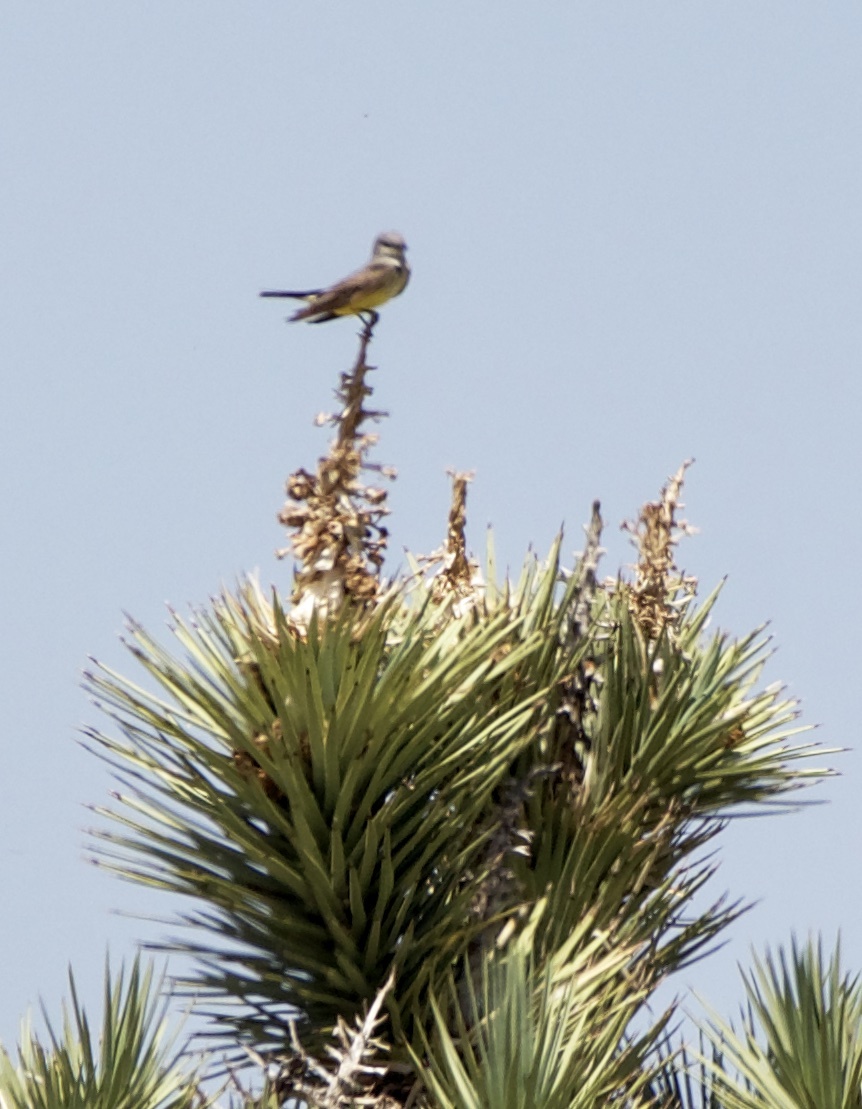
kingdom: Animalia
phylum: Chordata
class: Aves
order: Passeriformes
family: Tyrannidae
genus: Tyrannus
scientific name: Tyrannus verticalis
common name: Western kingbird
